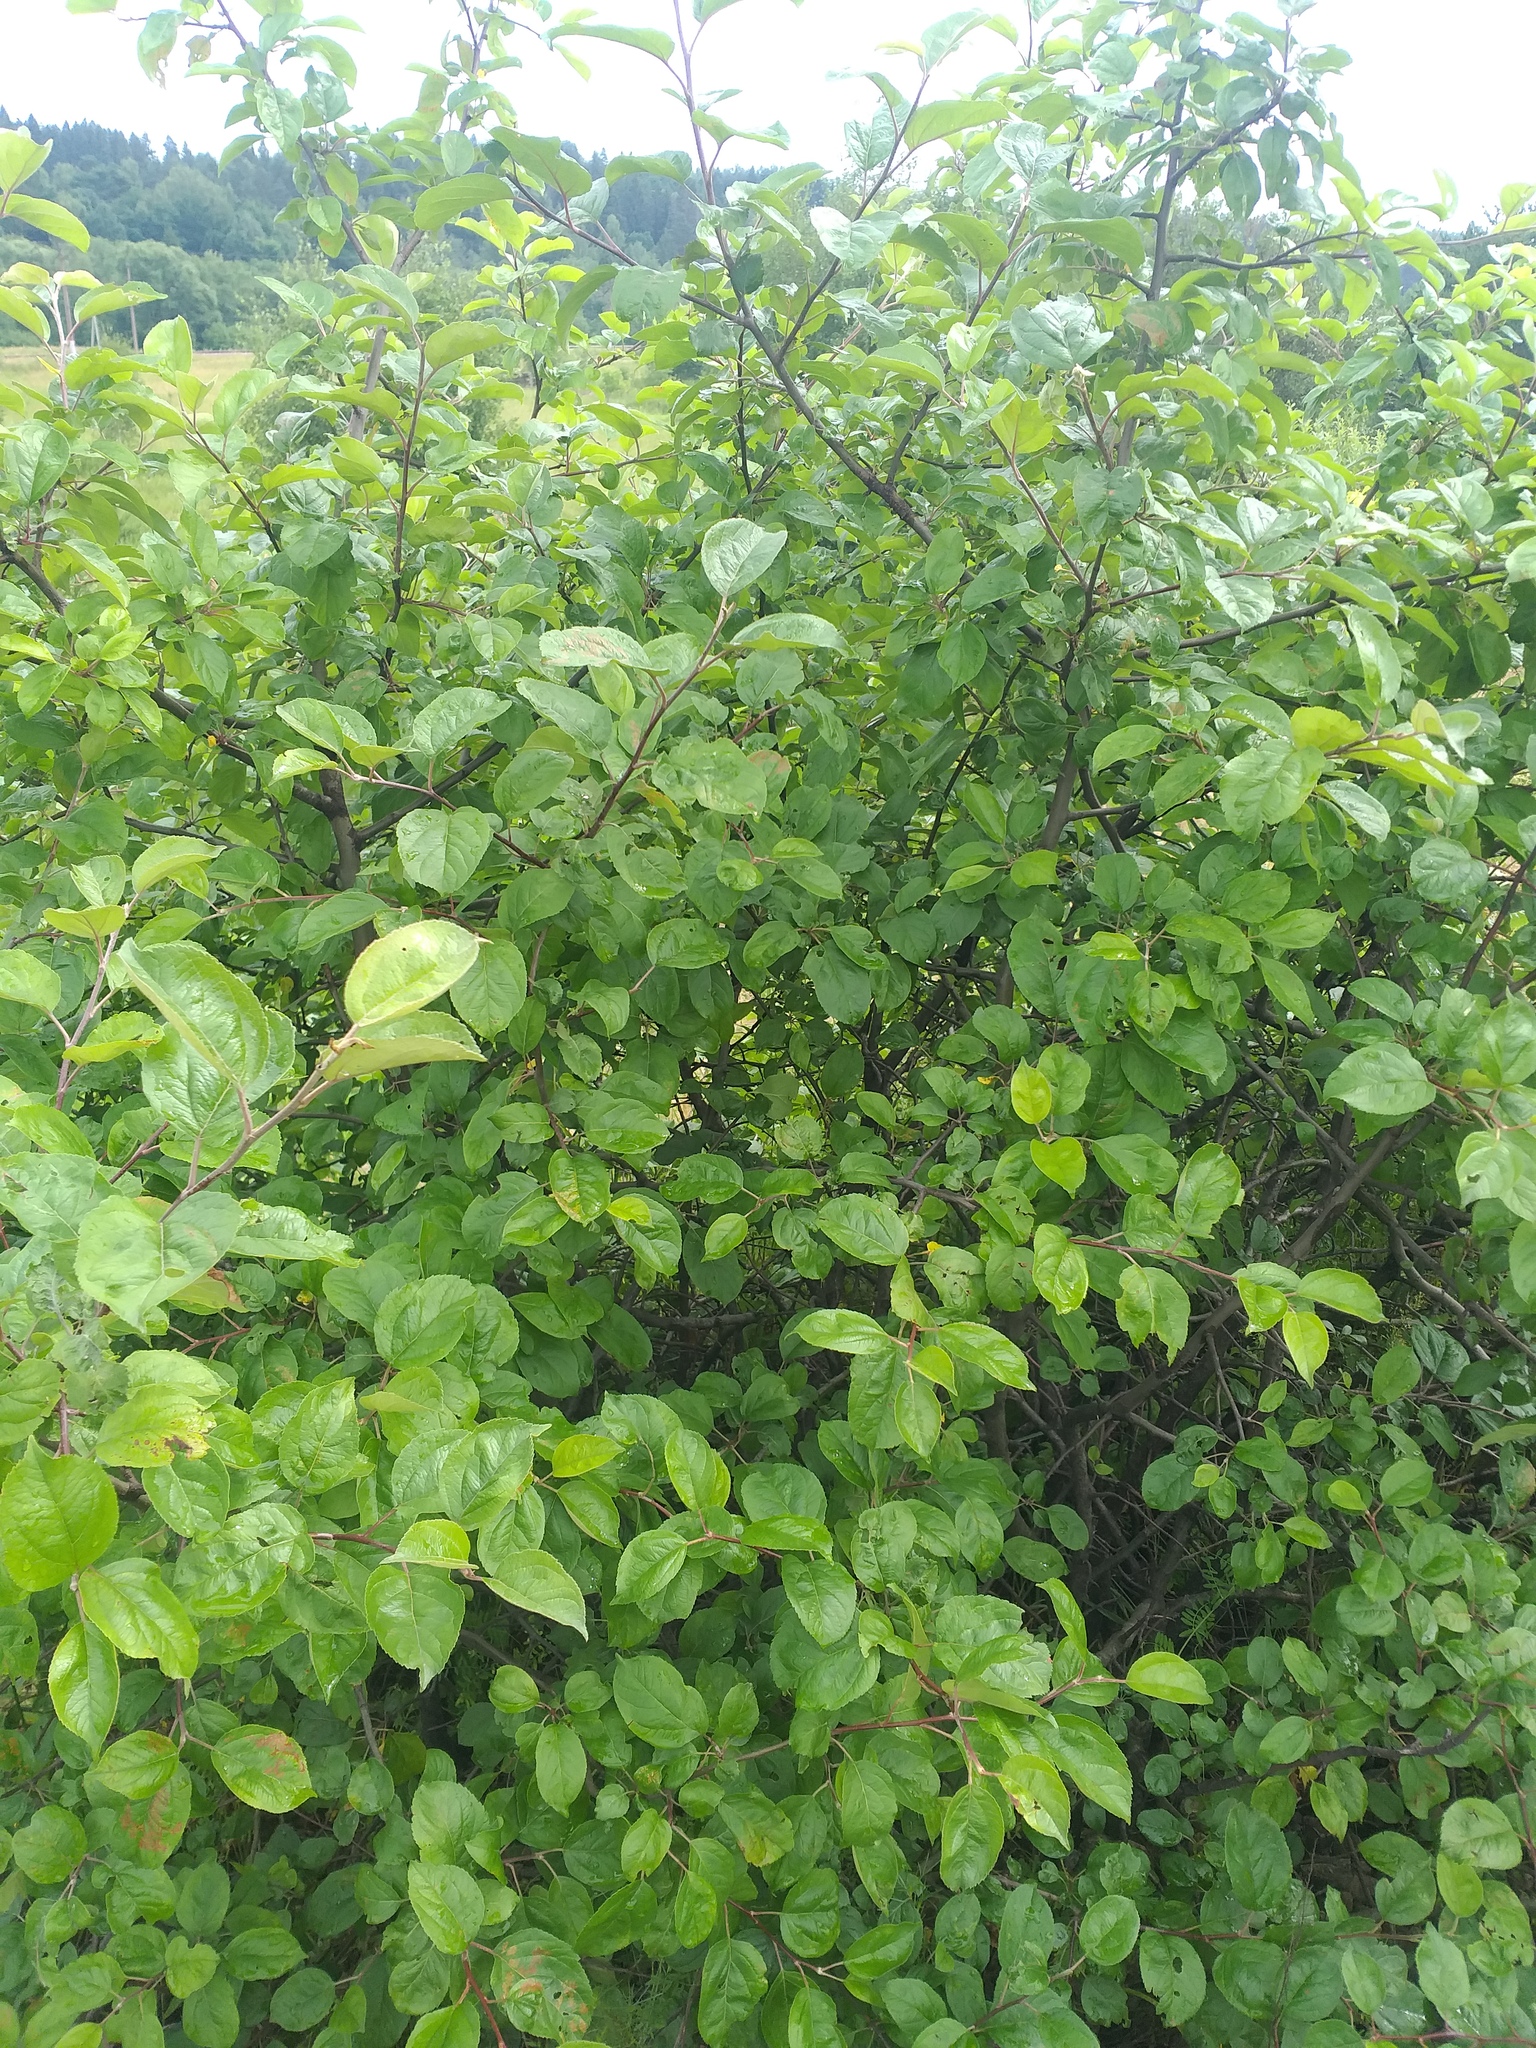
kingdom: Plantae
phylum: Tracheophyta
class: Magnoliopsida
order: Rosales
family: Rosaceae
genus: Malus
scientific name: Malus domestica
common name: Apple
